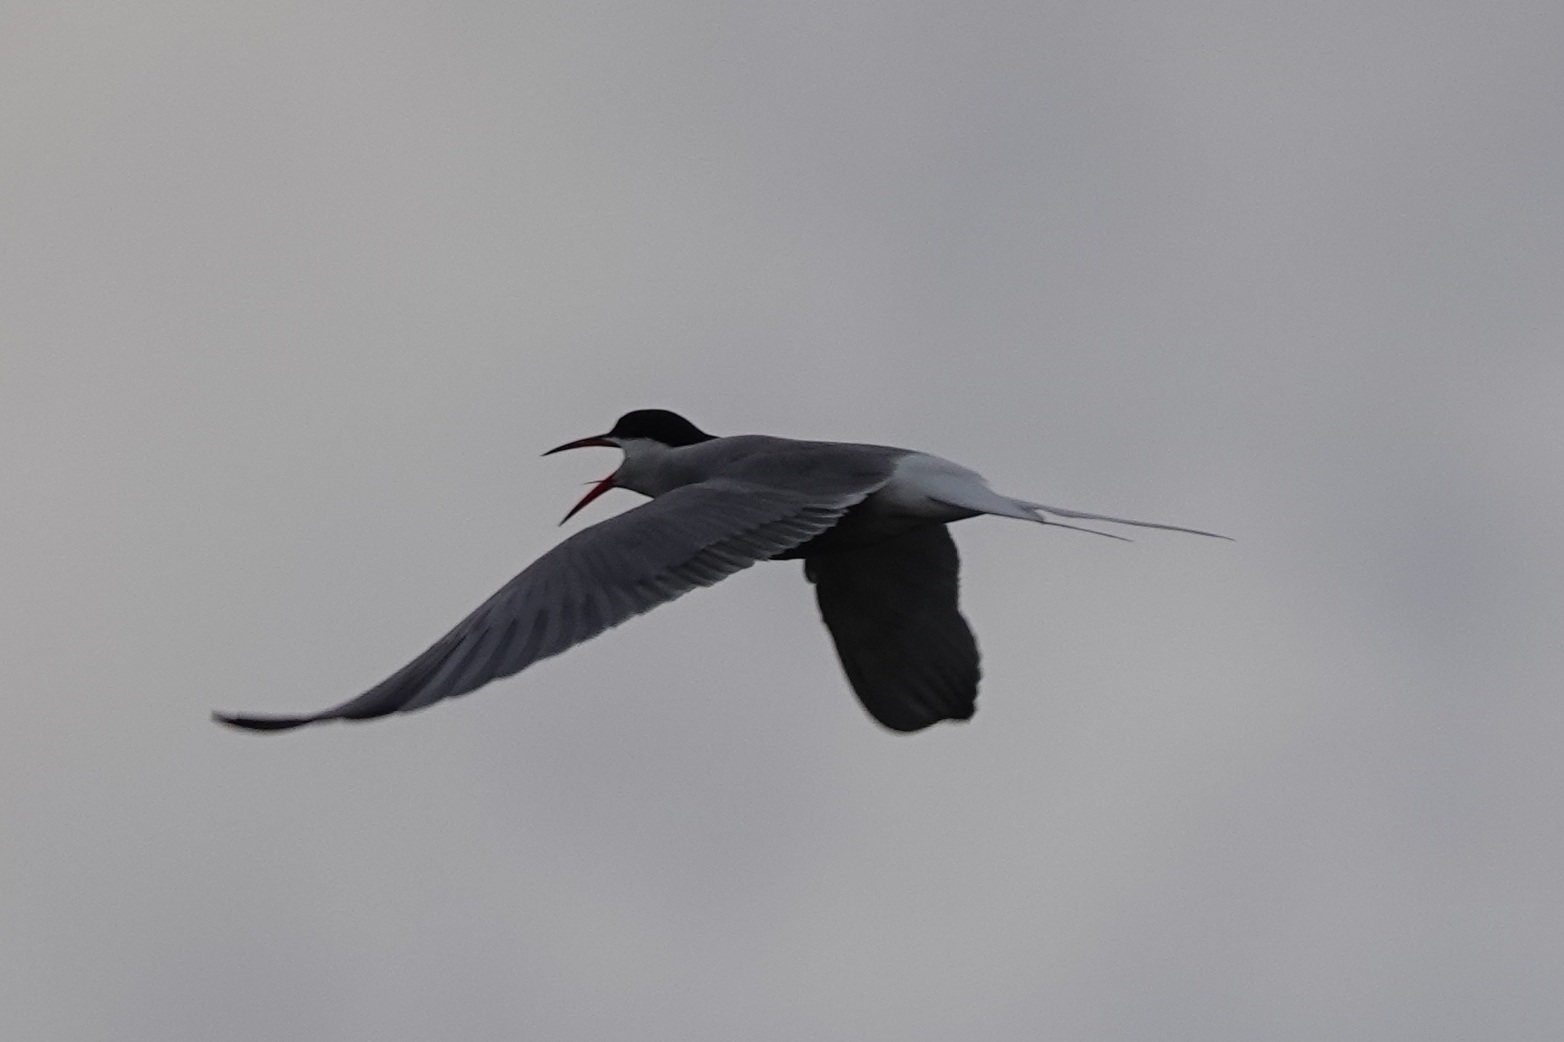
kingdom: Animalia
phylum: Chordata
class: Aves
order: Charadriiformes
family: Laridae
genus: Sterna
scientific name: Sterna hirundo
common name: Common tern
